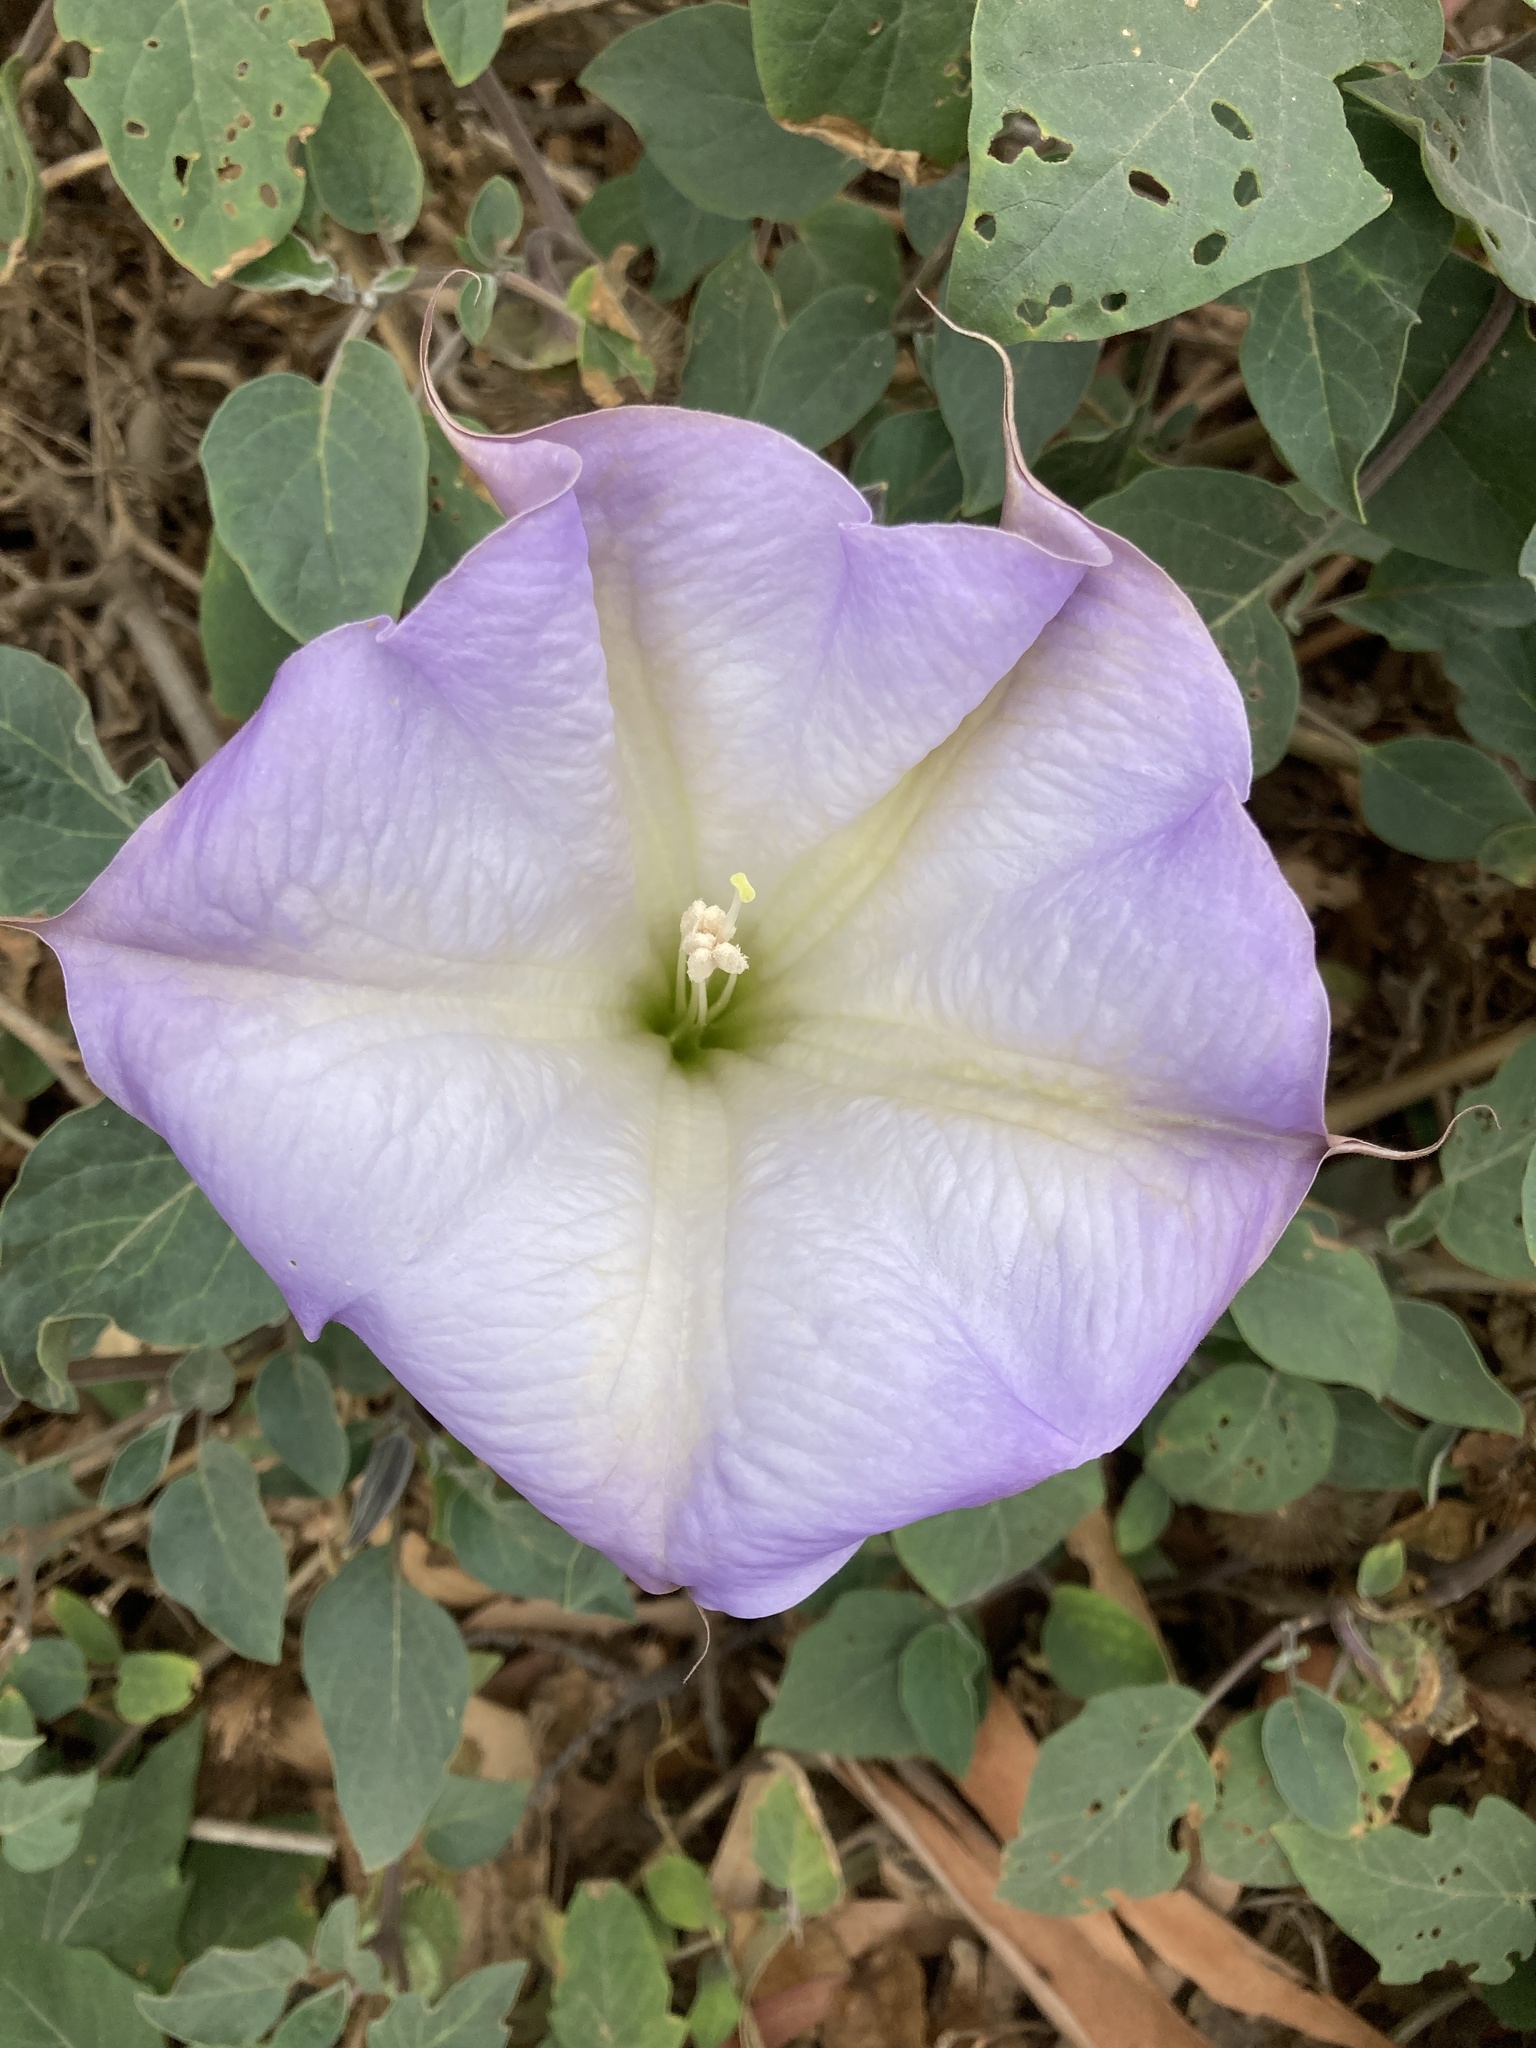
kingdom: Plantae
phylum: Tracheophyta
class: Magnoliopsida
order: Solanales
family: Solanaceae
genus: Datura
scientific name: Datura wrightii
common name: Sacred thorn-apple
